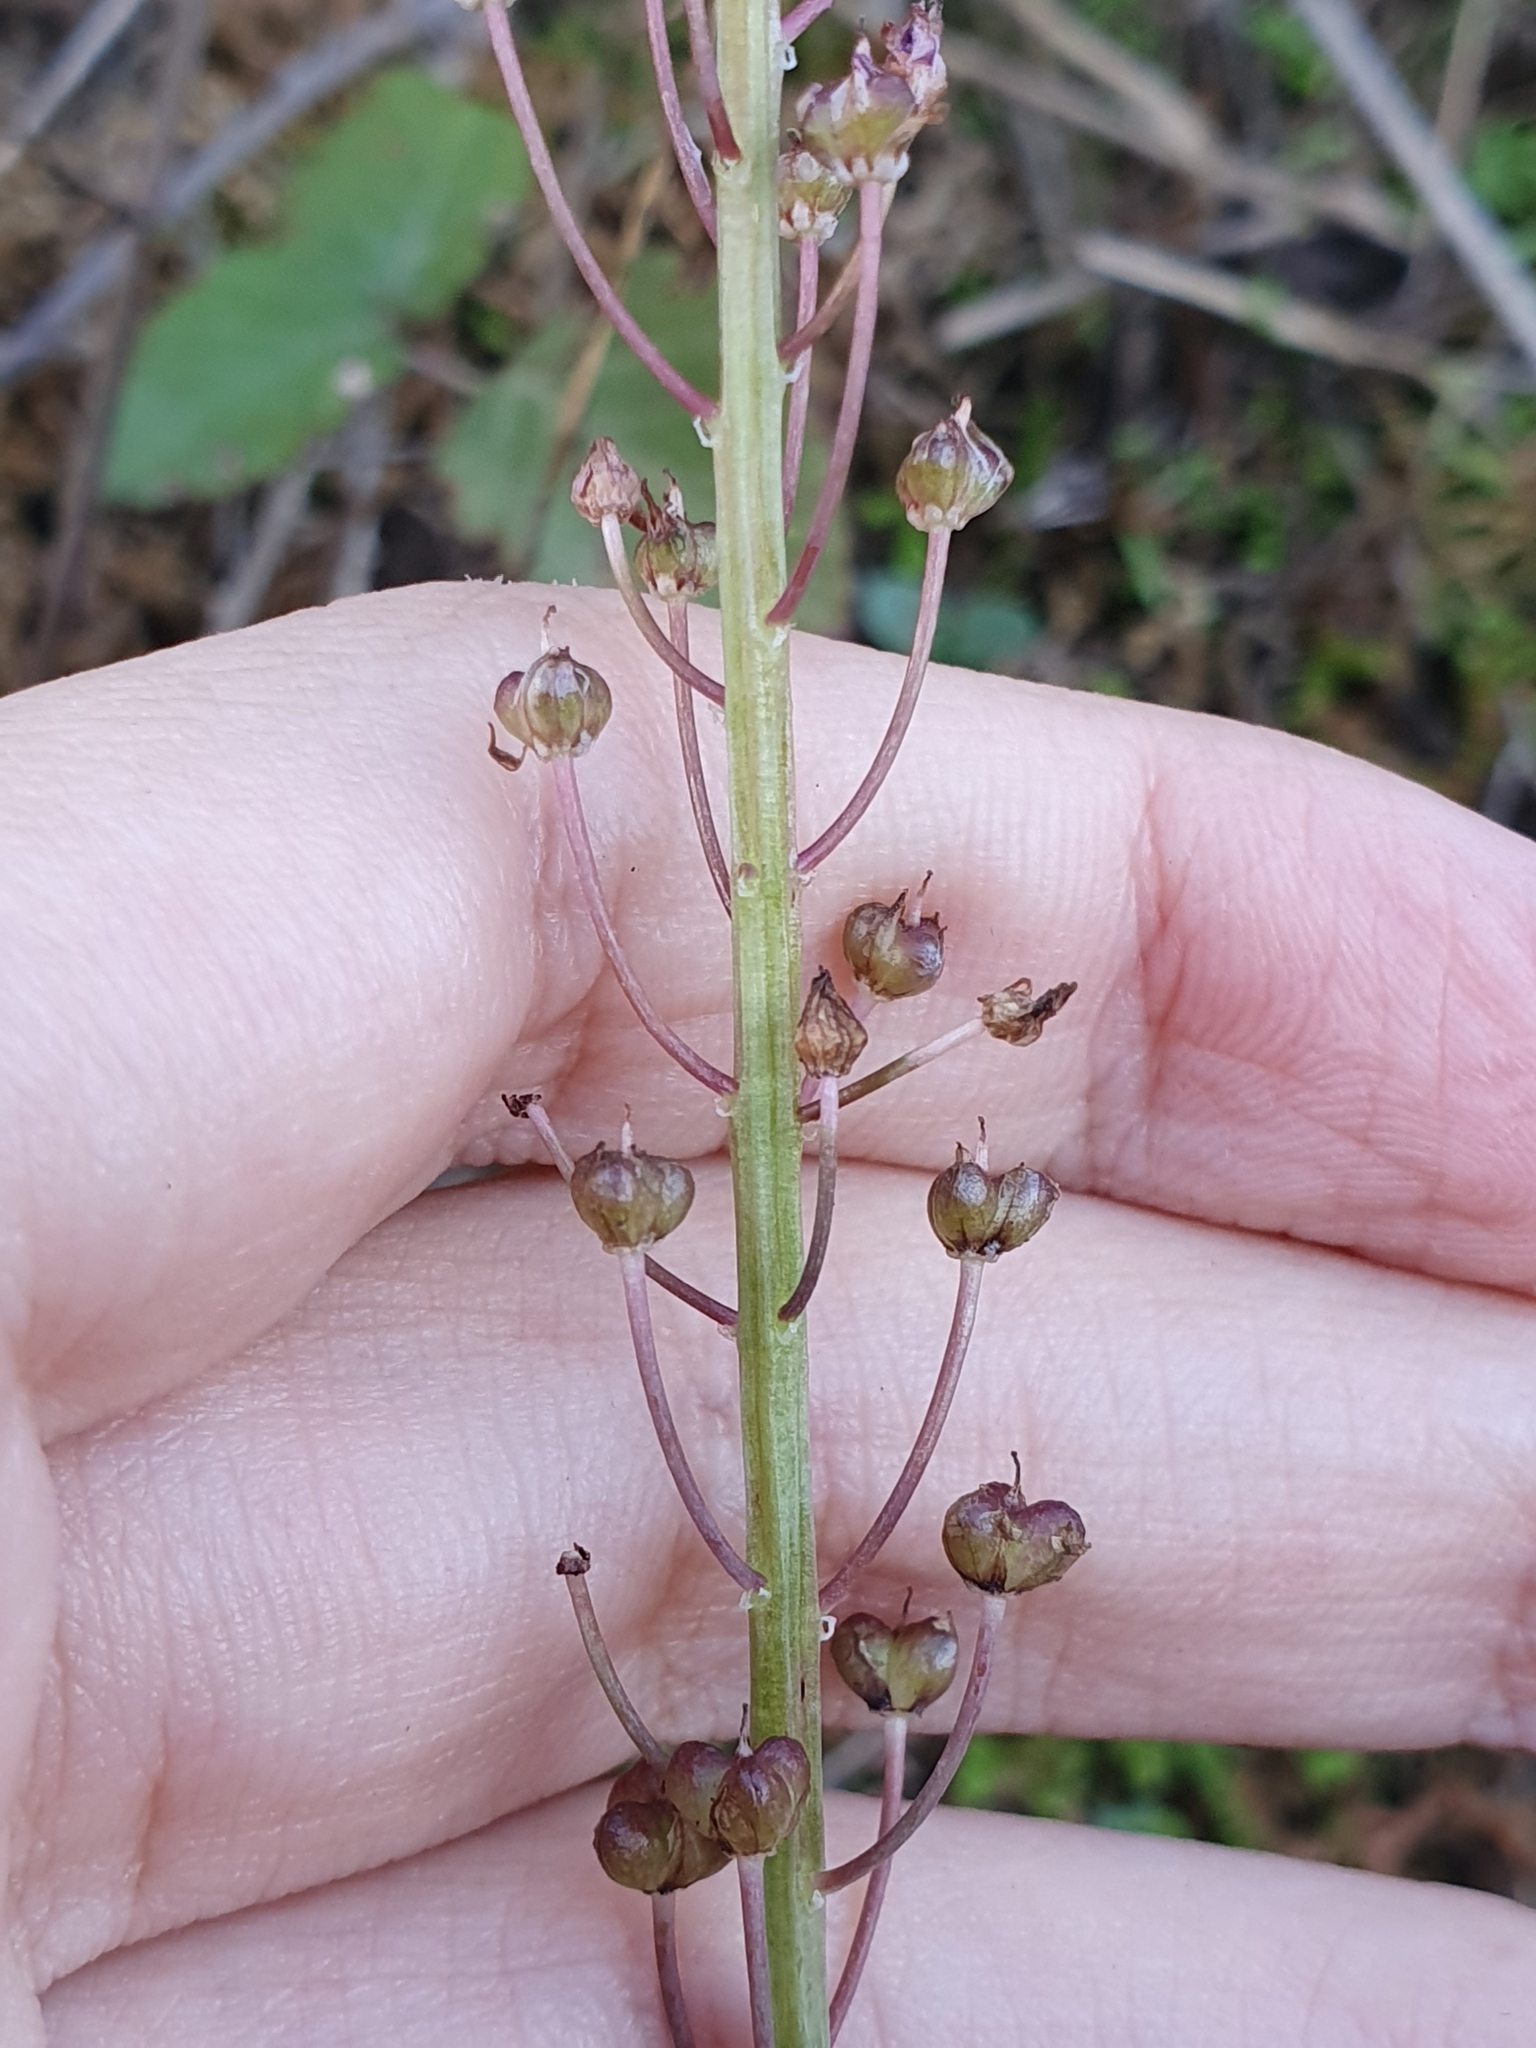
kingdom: Plantae
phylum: Tracheophyta
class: Liliopsida
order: Asparagales
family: Asparagaceae
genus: Barnardia
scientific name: Barnardia numidica
